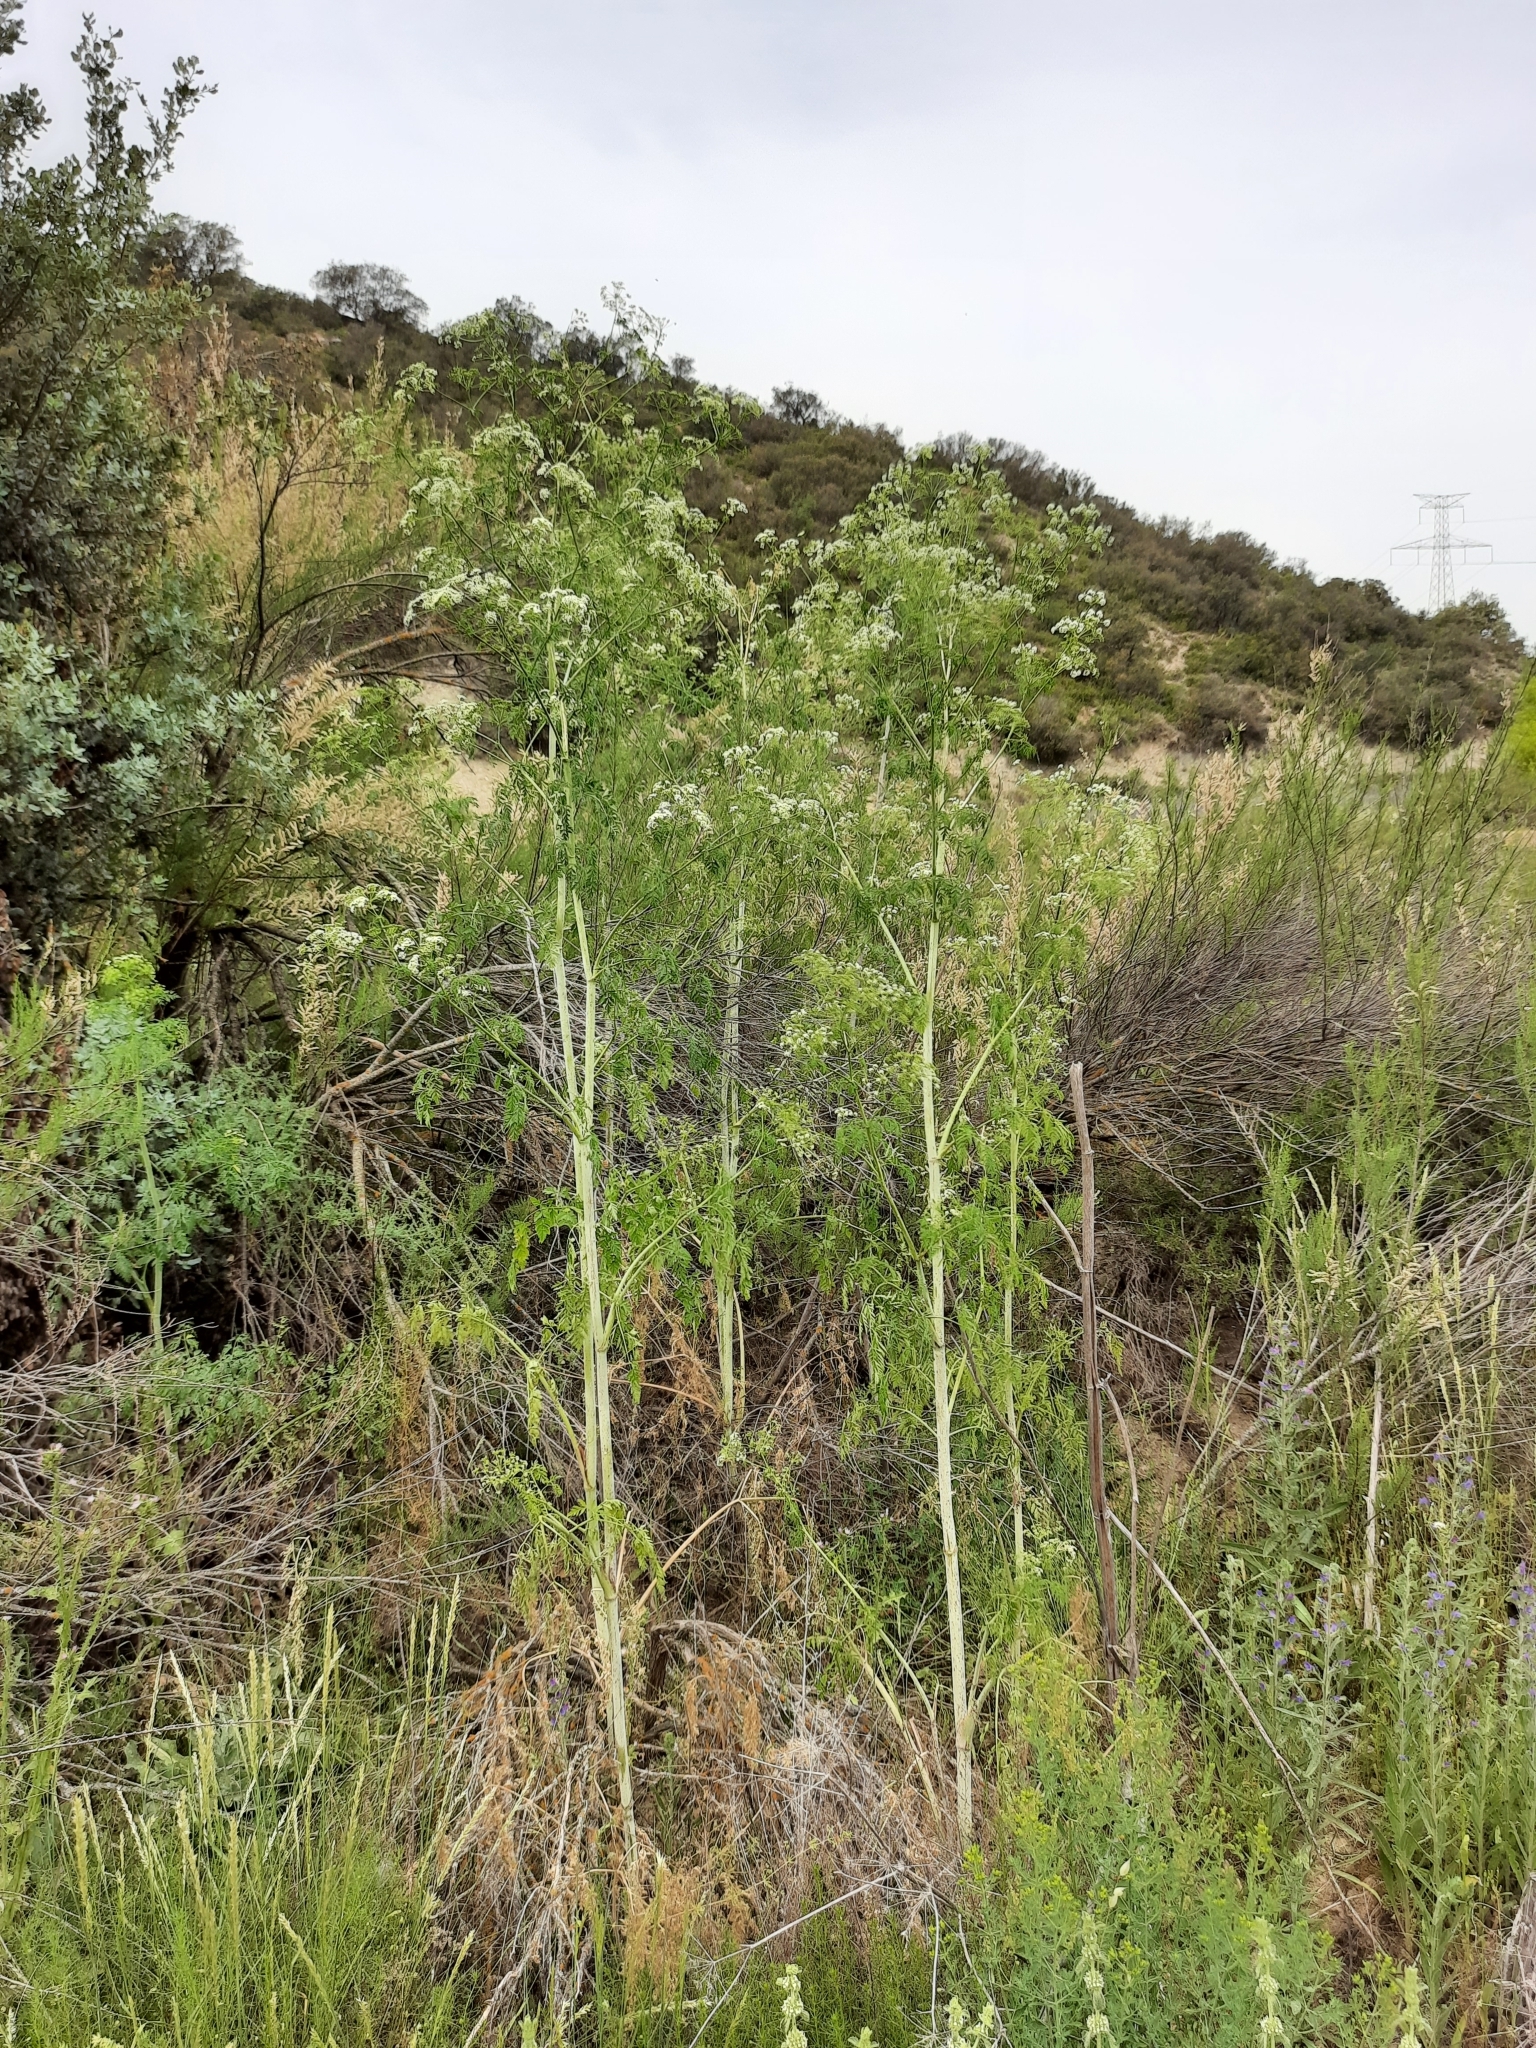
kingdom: Plantae
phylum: Tracheophyta
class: Magnoliopsida
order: Apiales
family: Apiaceae
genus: Conium
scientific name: Conium maculatum
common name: Hemlock
